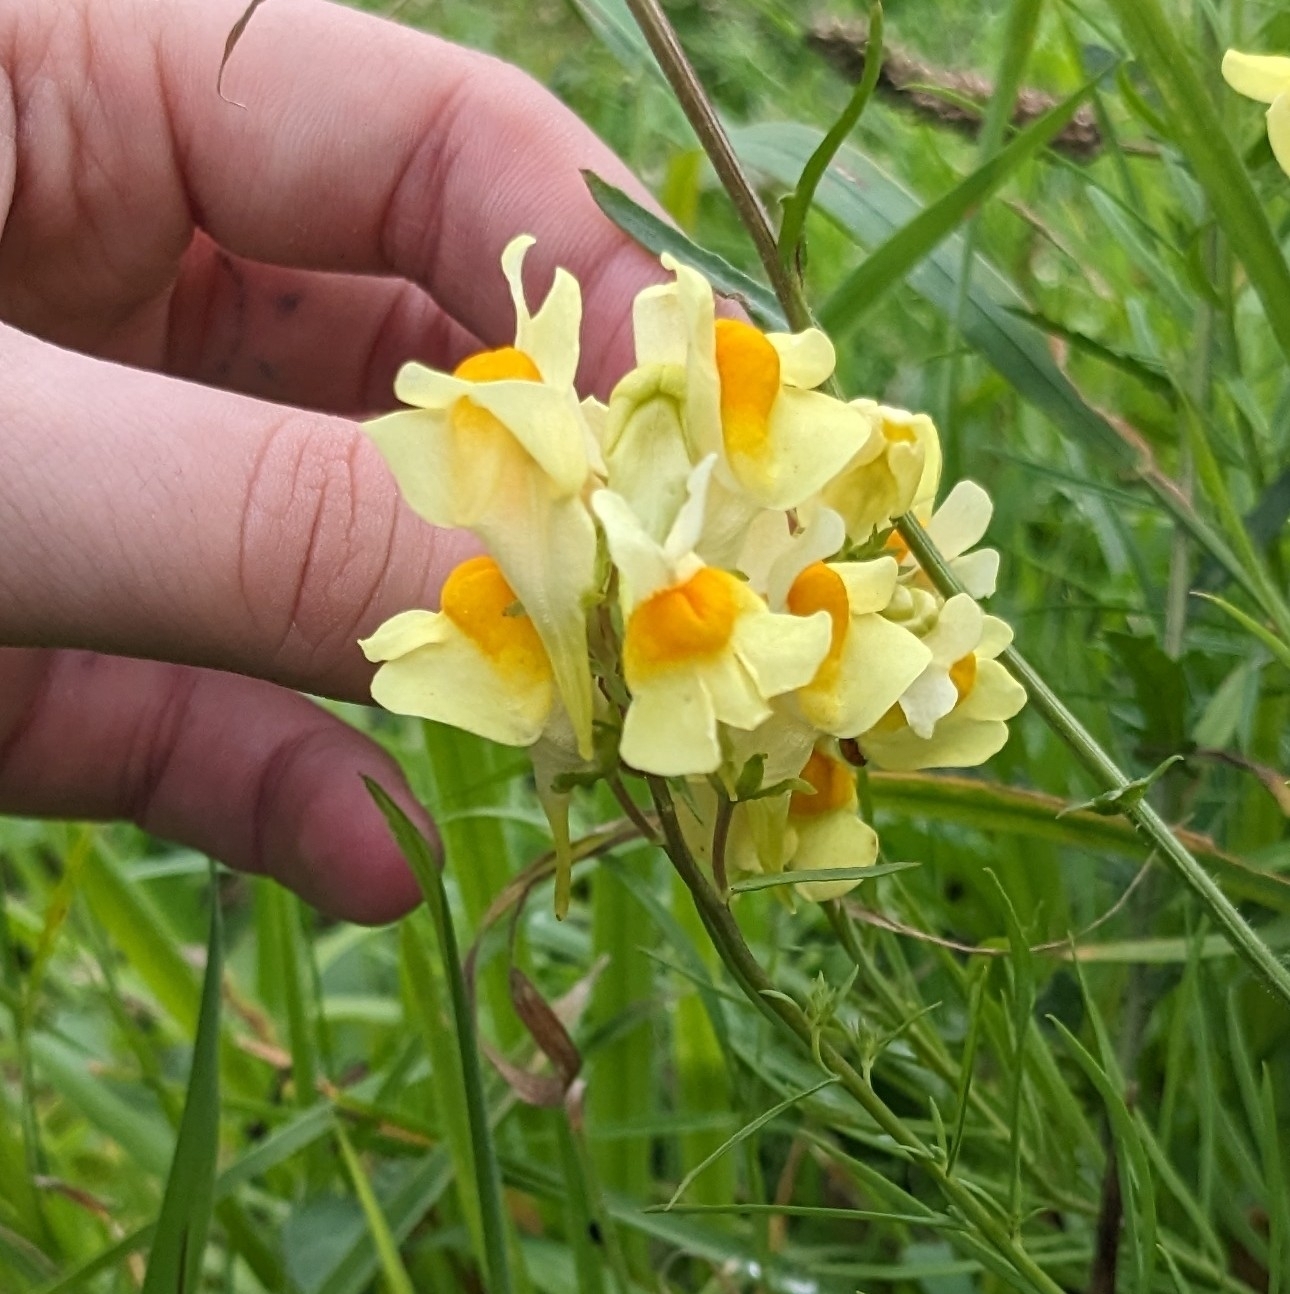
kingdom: Plantae
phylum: Tracheophyta
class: Magnoliopsida
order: Lamiales
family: Plantaginaceae
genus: Linaria
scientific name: Linaria vulgaris
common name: Butter and eggs
